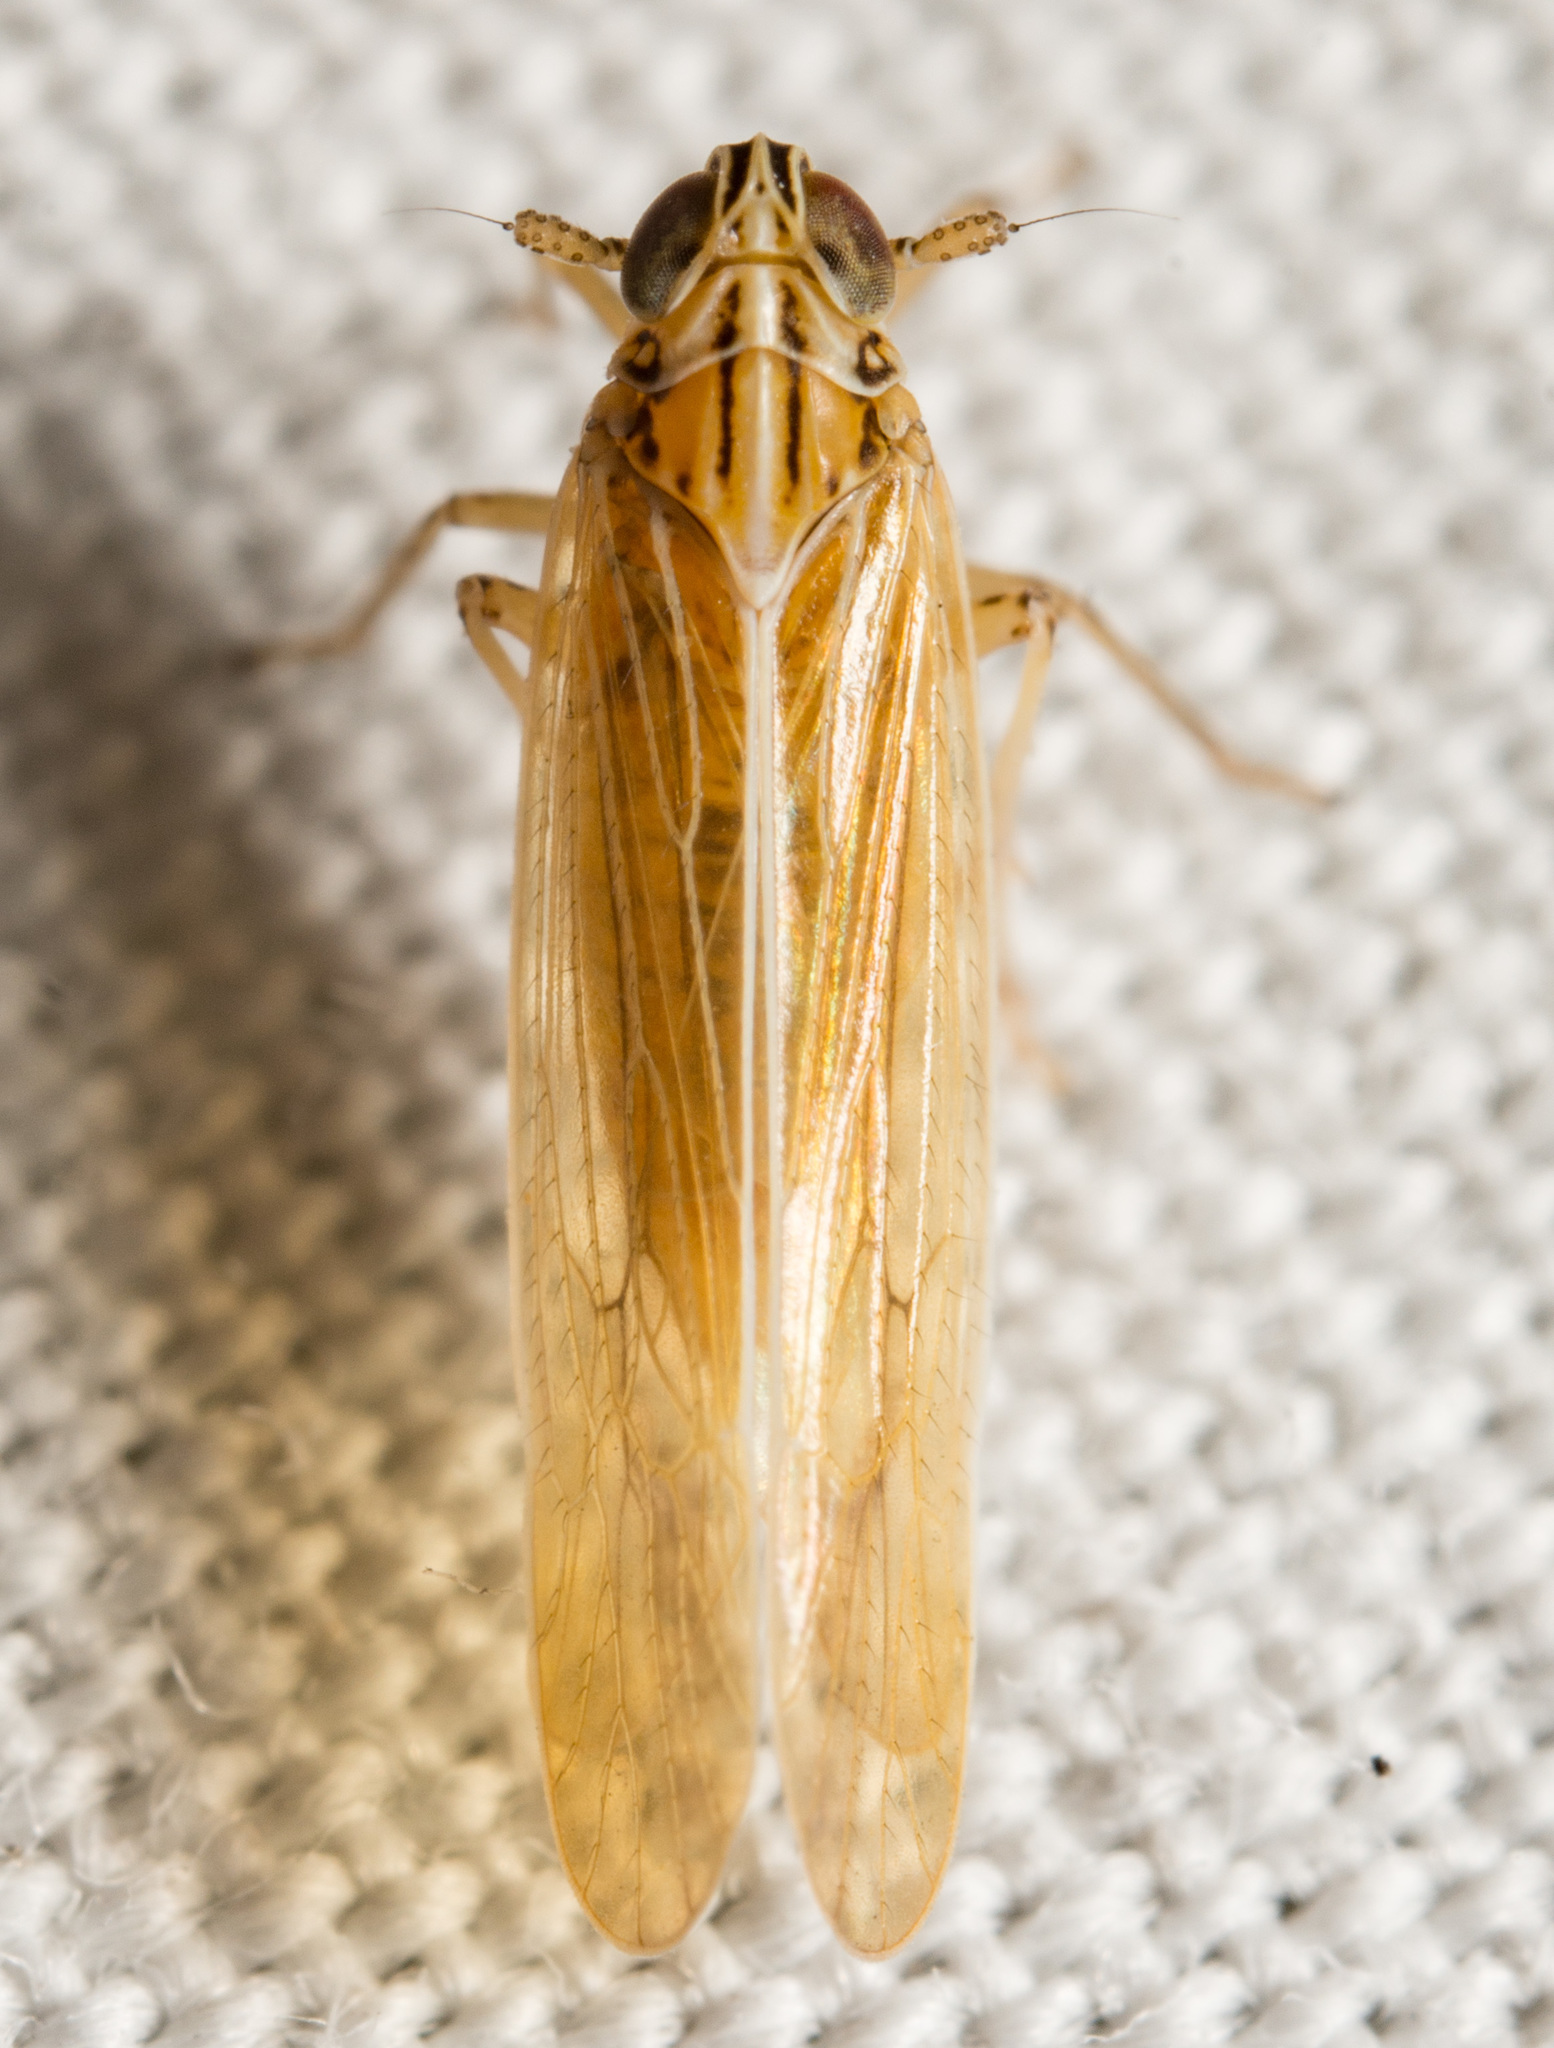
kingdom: Animalia
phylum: Arthropoda
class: Insecta
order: Hemiptera
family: Delphacidae
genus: Nothodelphax
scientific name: Nothodelphax slossonae
